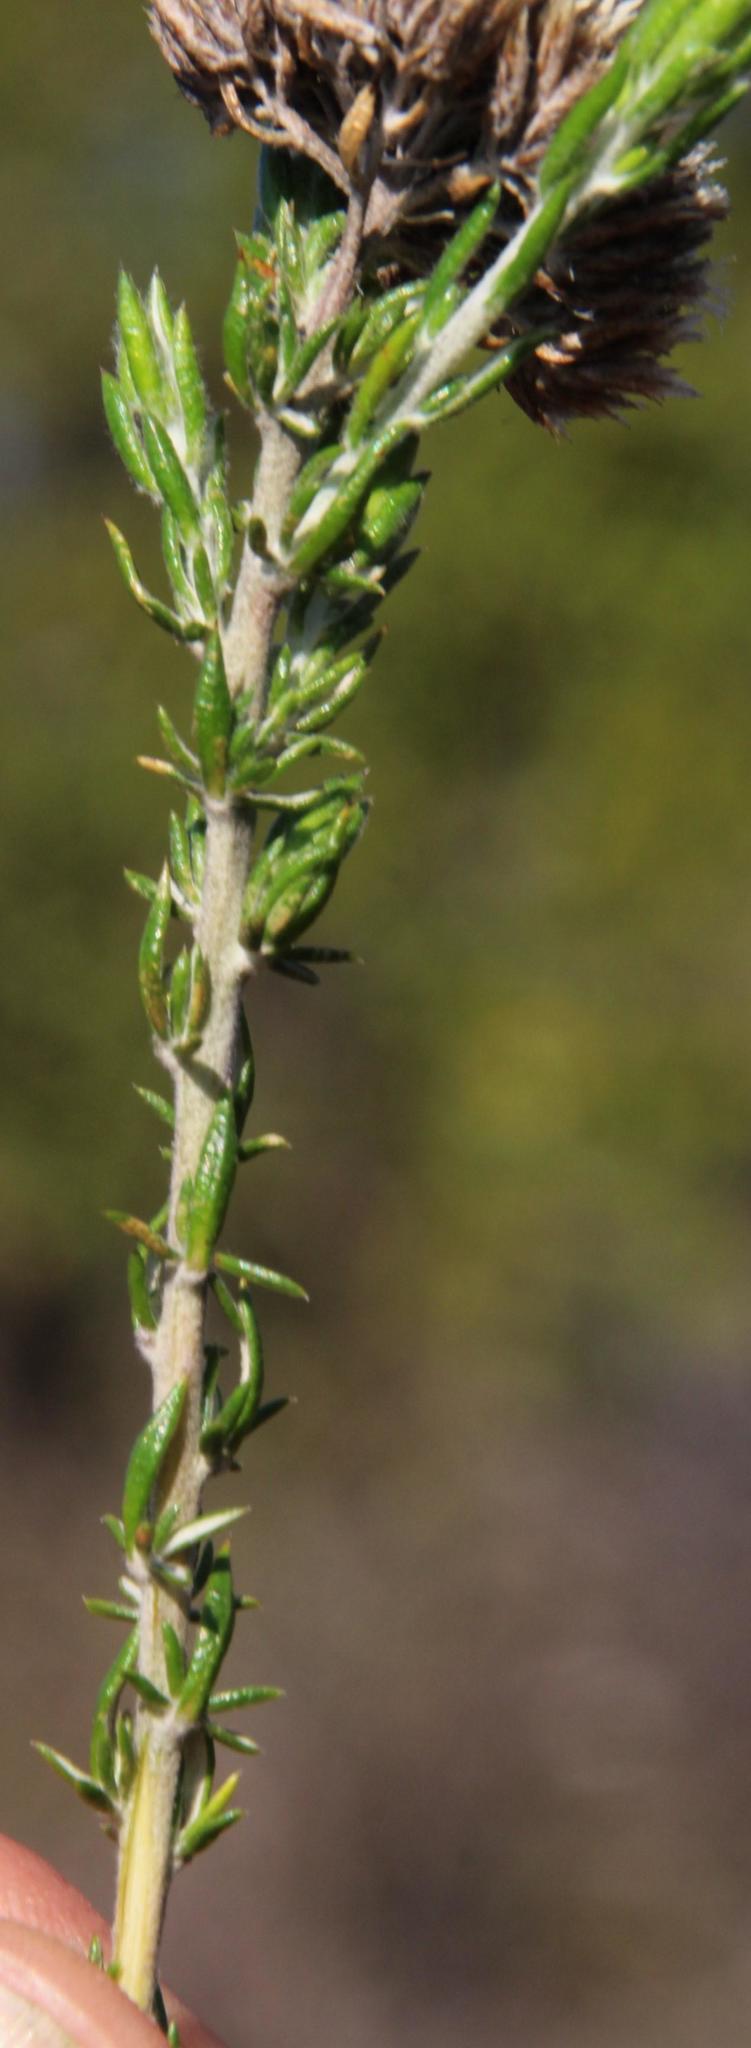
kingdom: Plantae
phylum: Tracheophyta
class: Magnoliopsida
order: Asterales
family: Asteraceae
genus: Metalasia
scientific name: Metalasia densa
